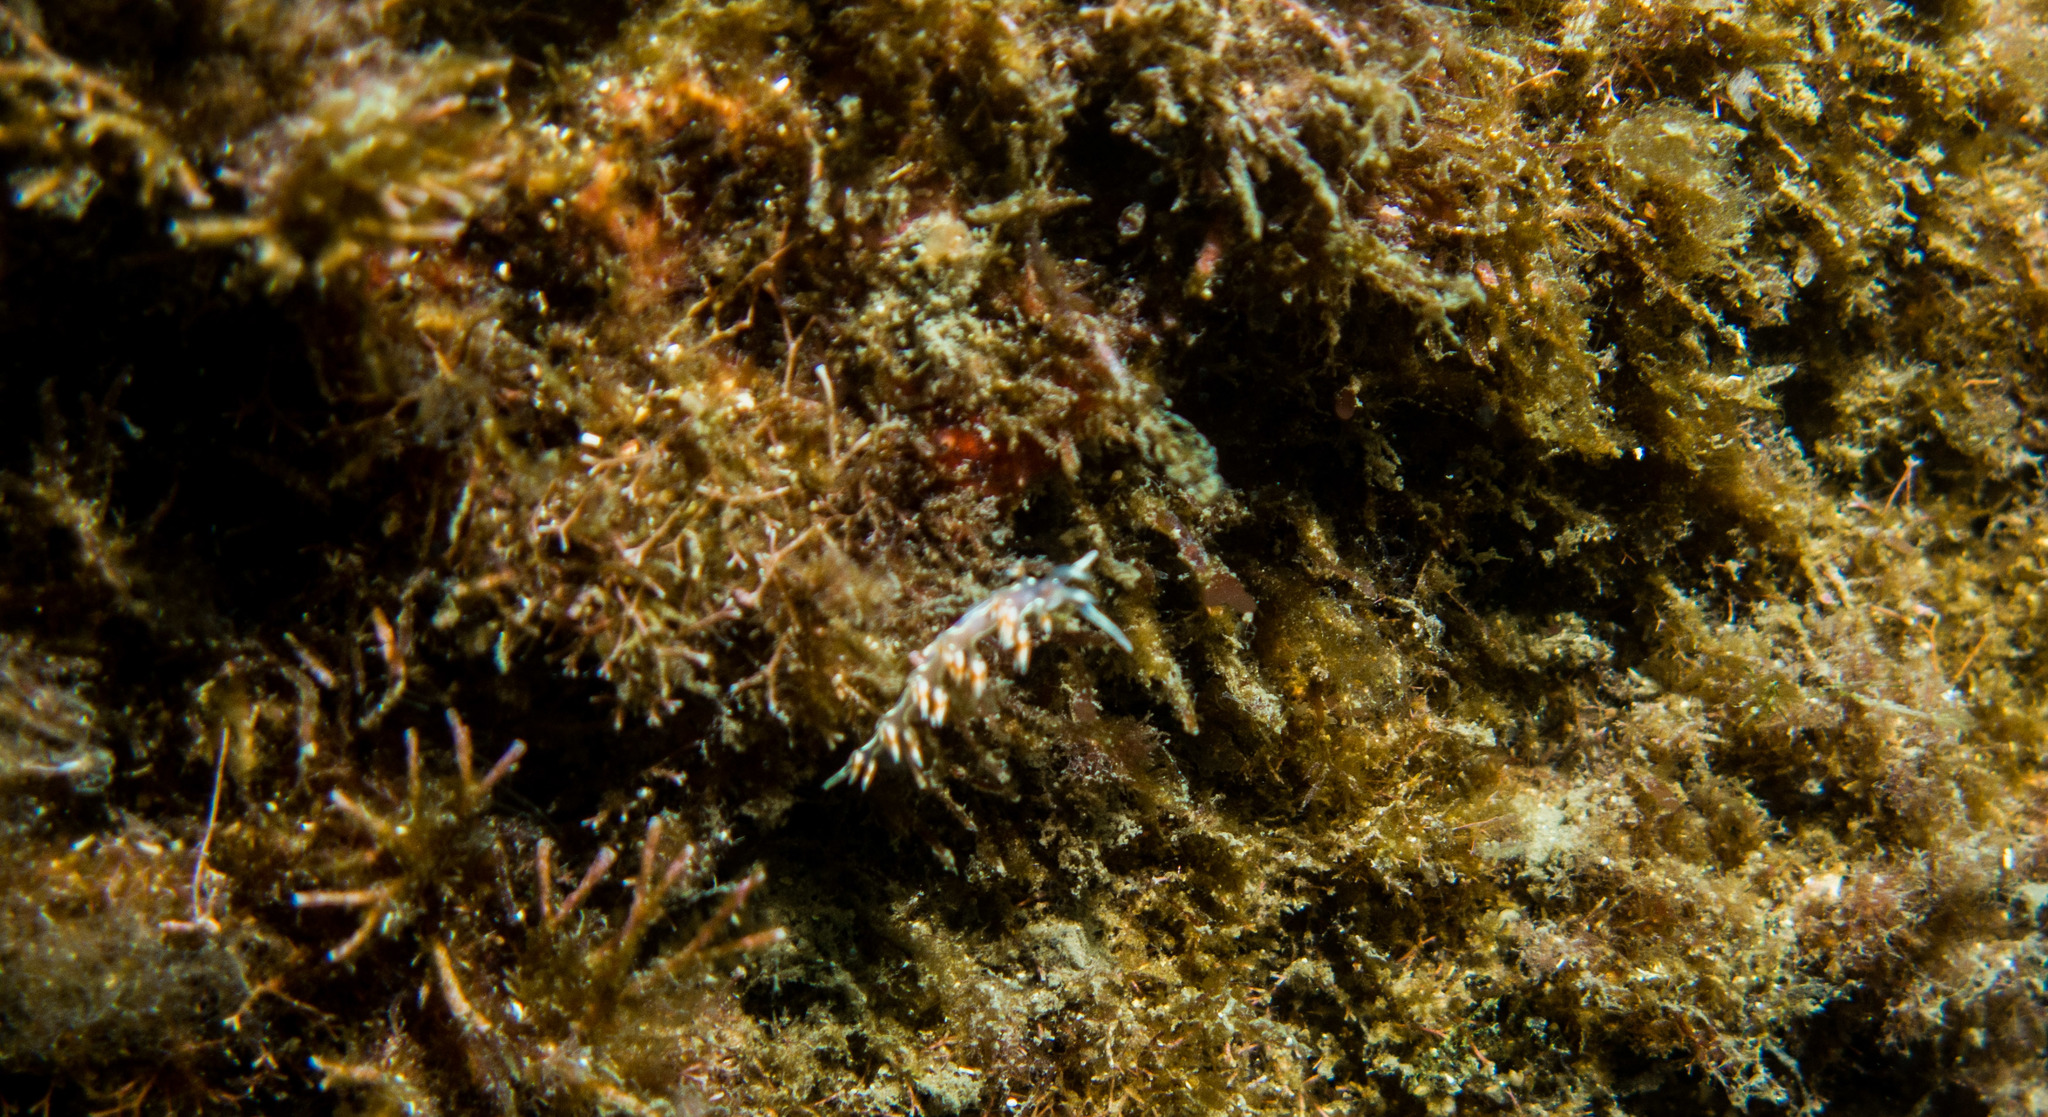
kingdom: Animalia
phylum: Mollusca
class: Gastropoda
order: Nudibranchia
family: Flabellinidae
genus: Flabellina
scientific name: Flabellina engeli
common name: Engel's flabellina
